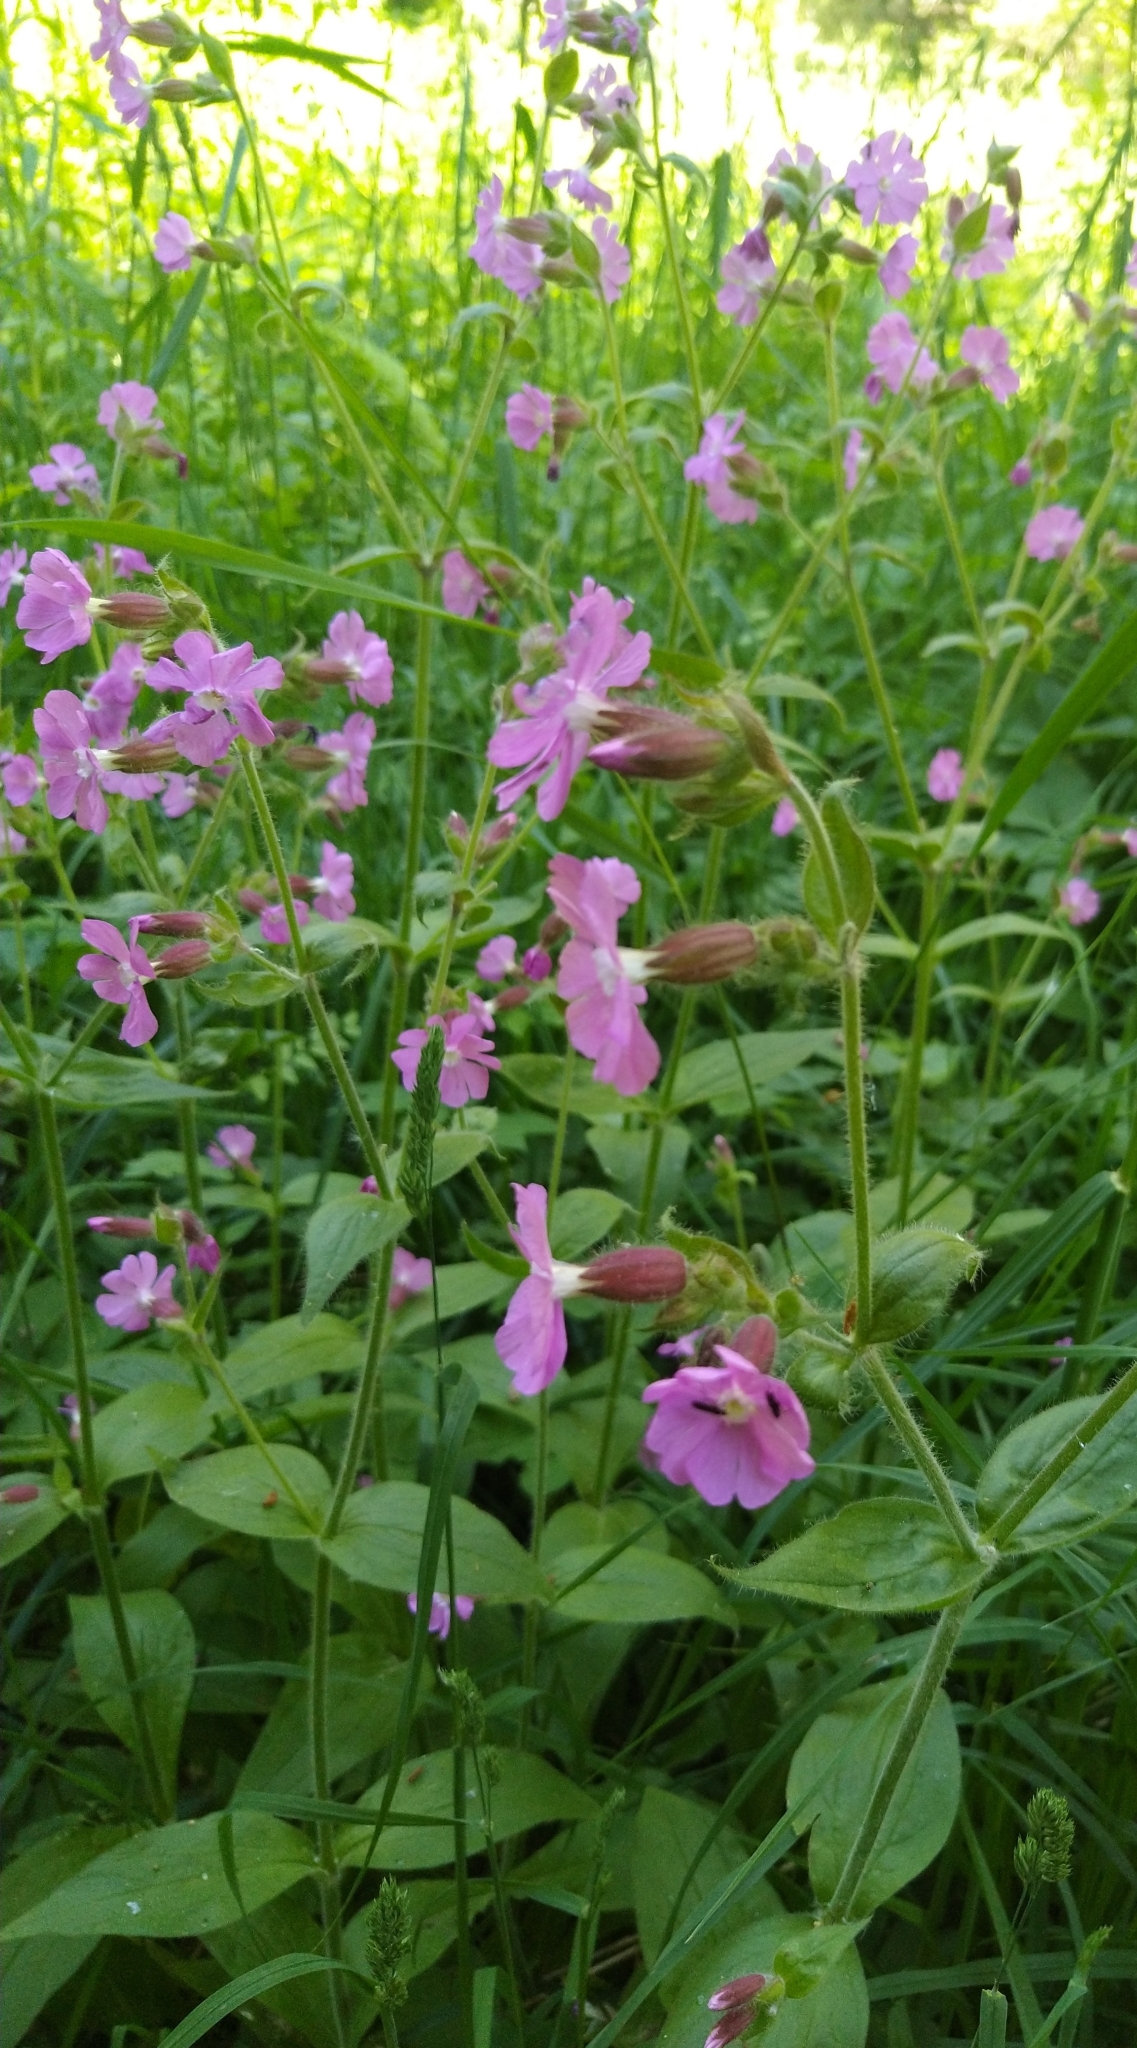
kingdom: Plantae
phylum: Tracheophyta
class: Magnoliopsida
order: Caryophyllales
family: Caryophyllaceae
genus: Silene
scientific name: Silene dioica
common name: Red campion
